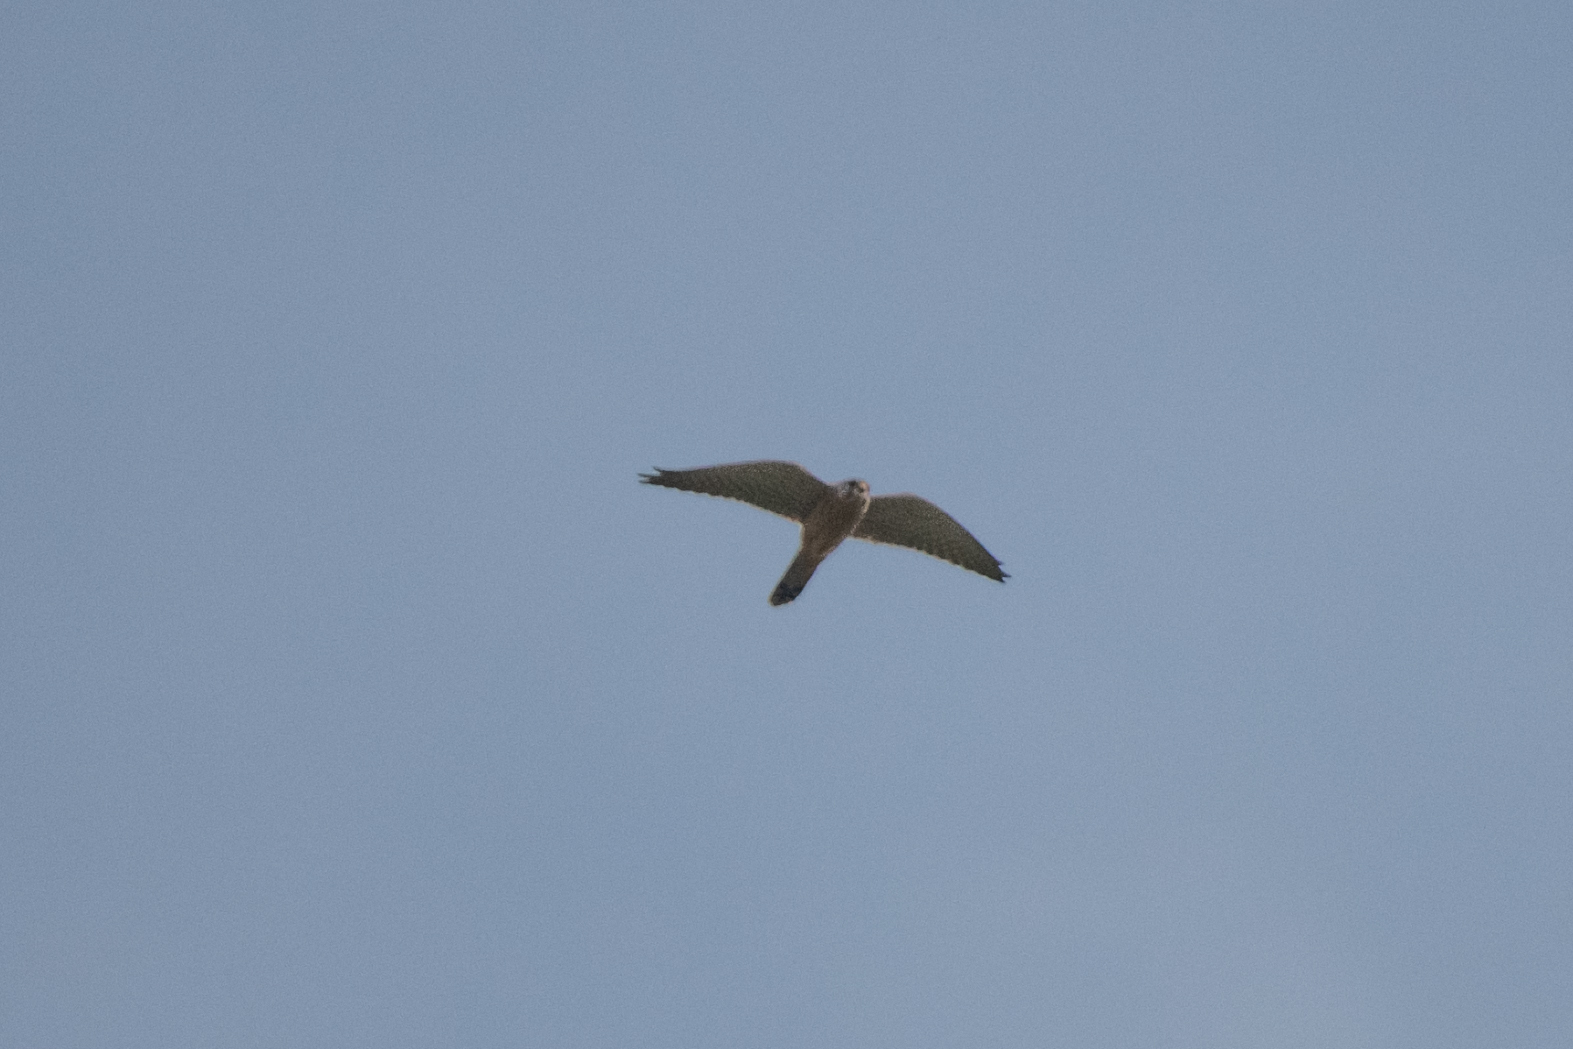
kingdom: Animalia
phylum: Chordata
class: Aves
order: Falconiformes
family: Falconidae
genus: Falco
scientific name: Falco tinnunculus
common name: Common kestrel
